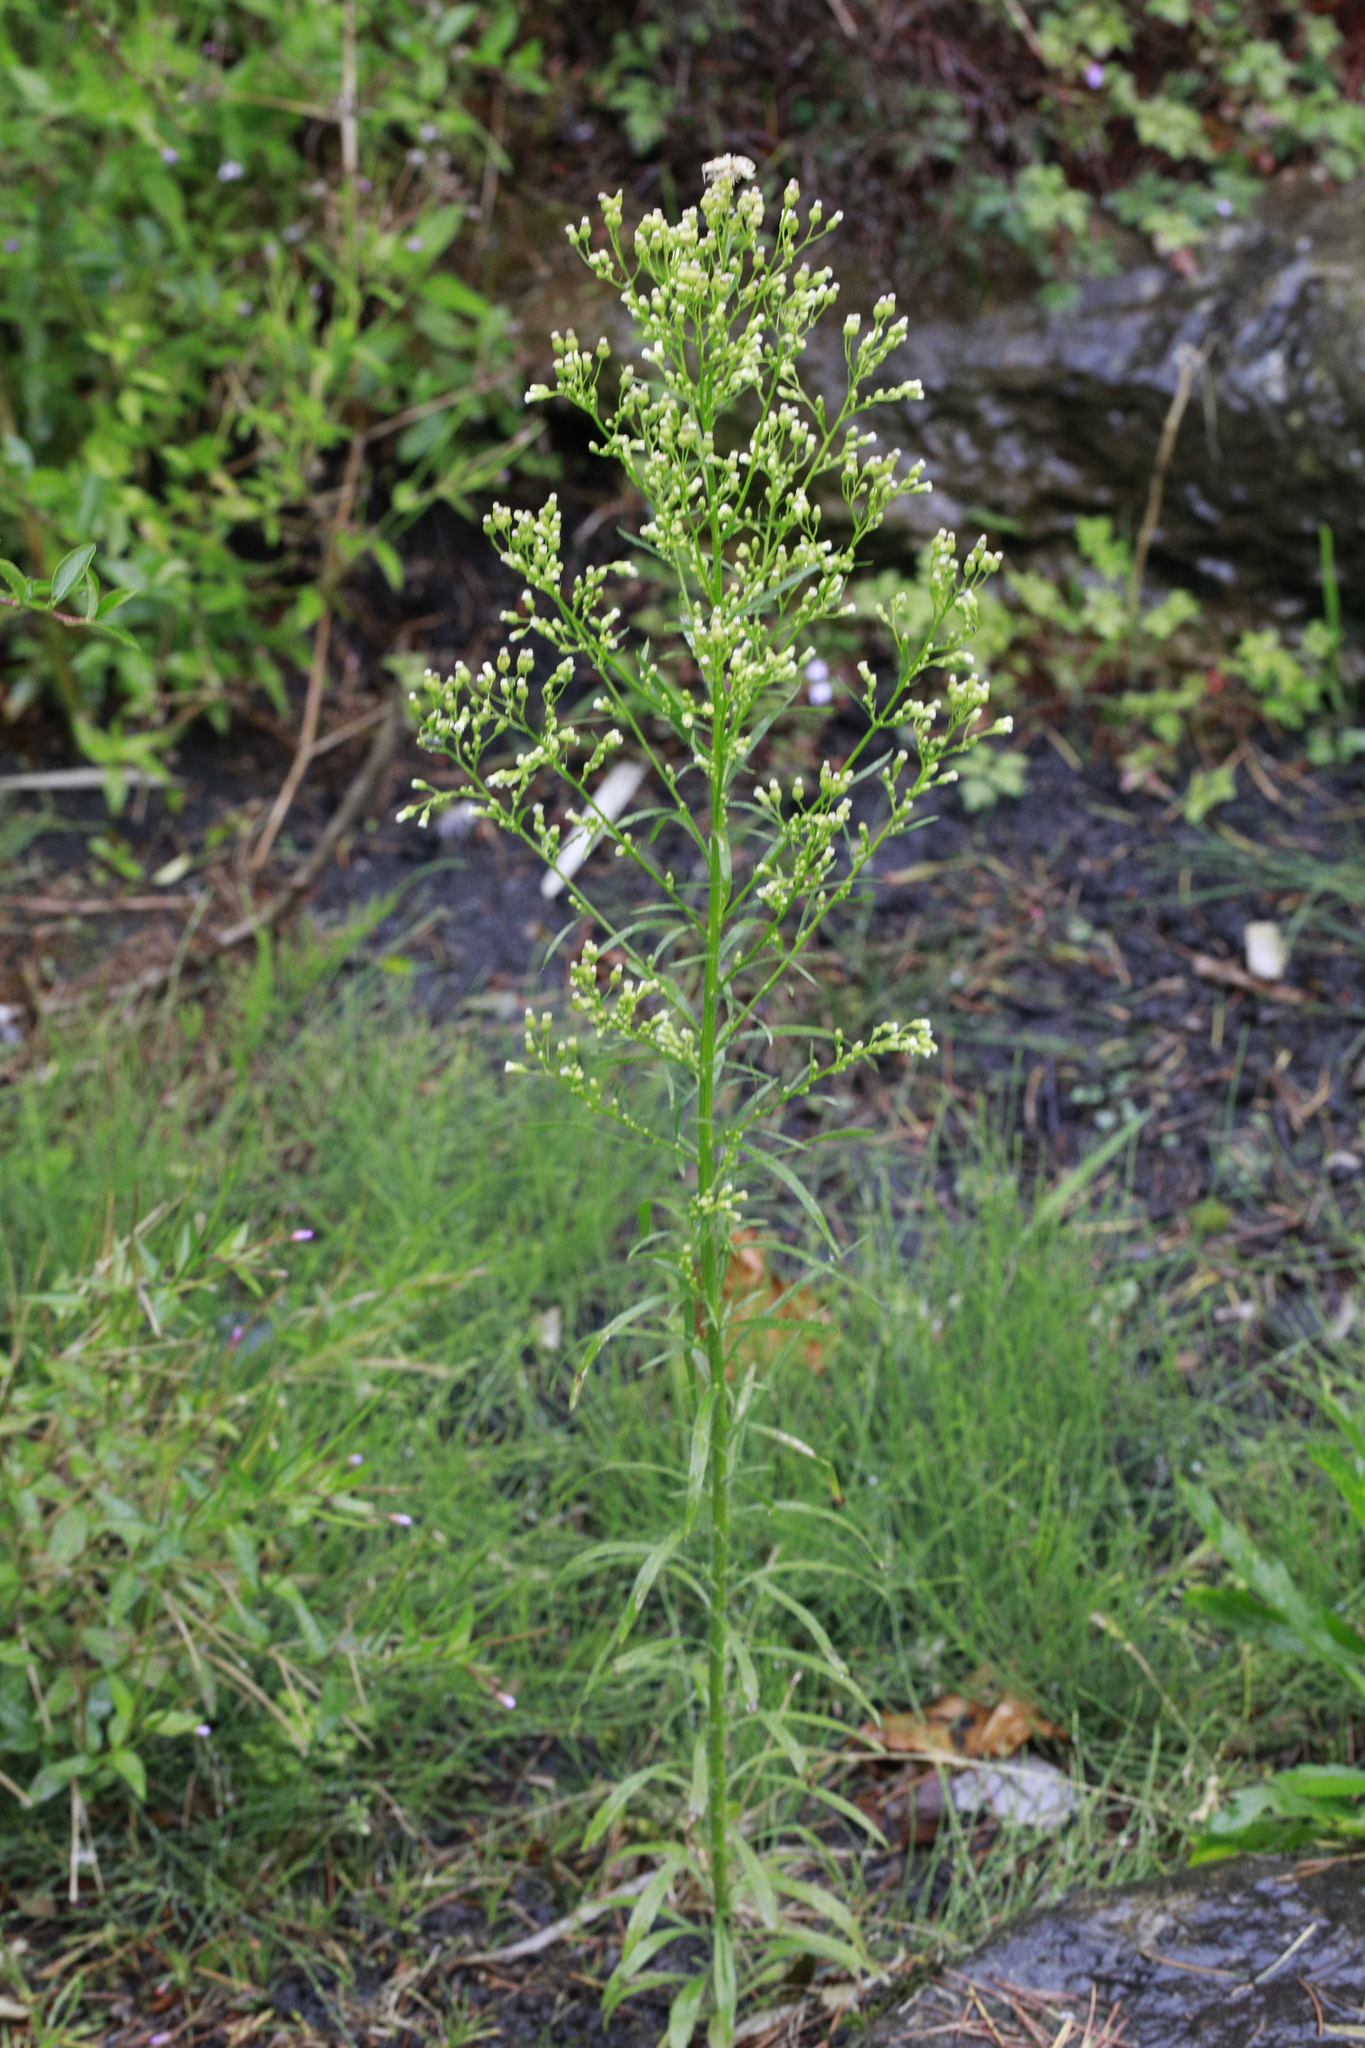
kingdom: Plantae
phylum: Tracheophyta
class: Magnoliopsida
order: Asterales
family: Asteraceae
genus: Erigeron
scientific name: Erigeron canadensis
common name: Canadian fleabane
